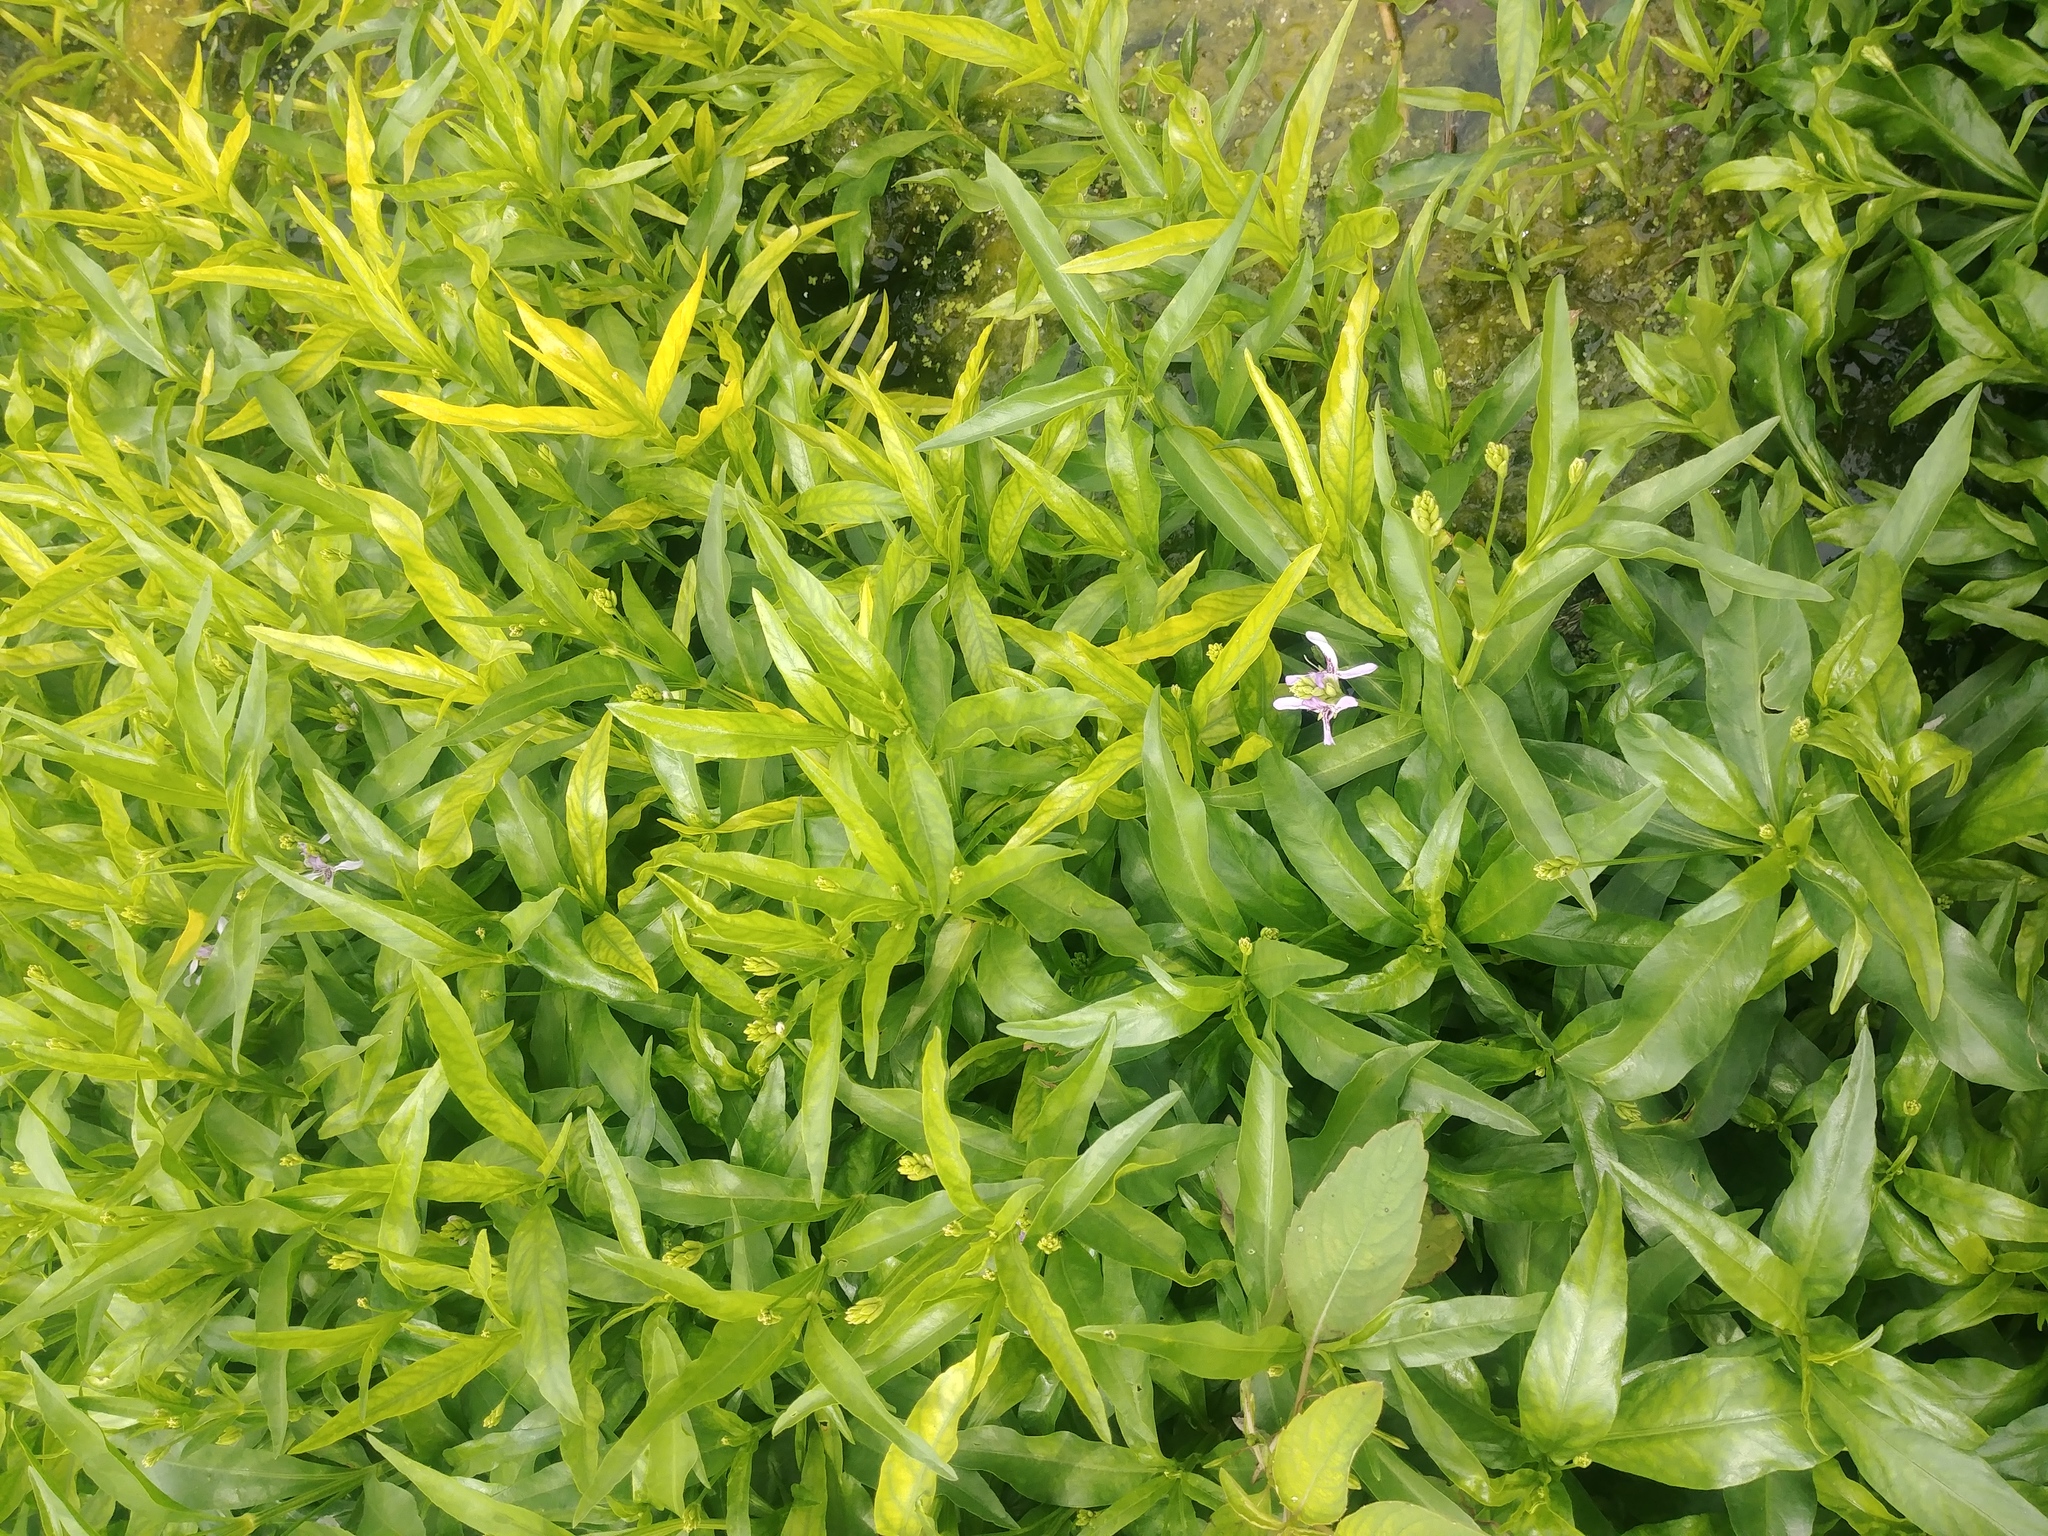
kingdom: Plantae
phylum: Tracheophyta
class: Magnoliopsida
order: Lamiales
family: Acanthaceae
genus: Dianthera
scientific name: Dianthera americana
